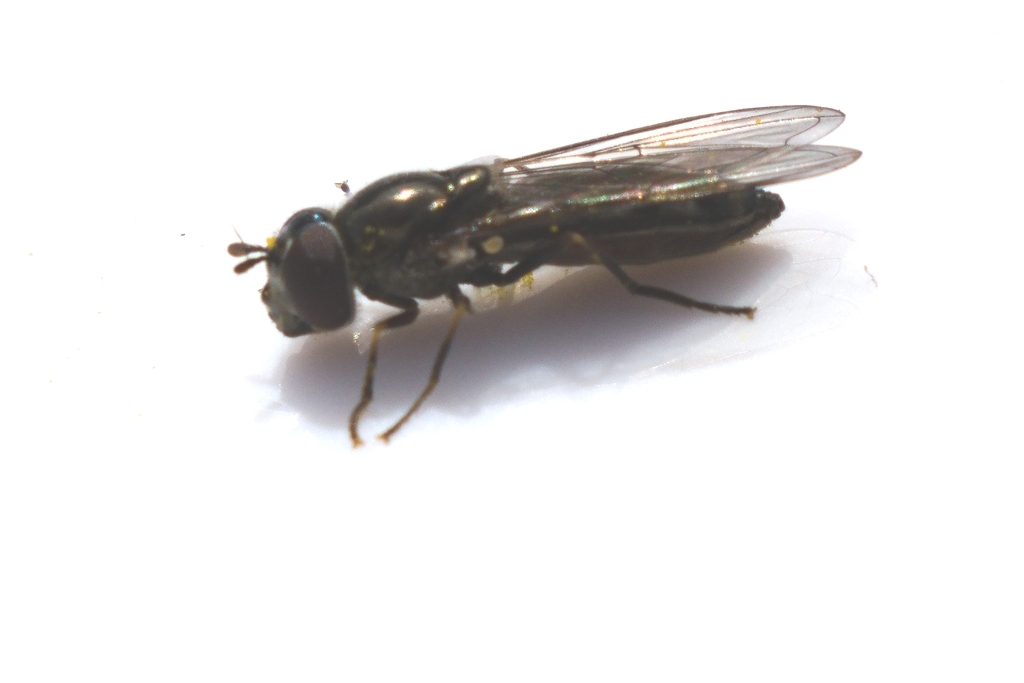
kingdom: Animalia
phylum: Arthropoda
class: Insecta
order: Diptera
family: Syrphidae
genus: Platycheirus
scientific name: Platycheirus albimanus
